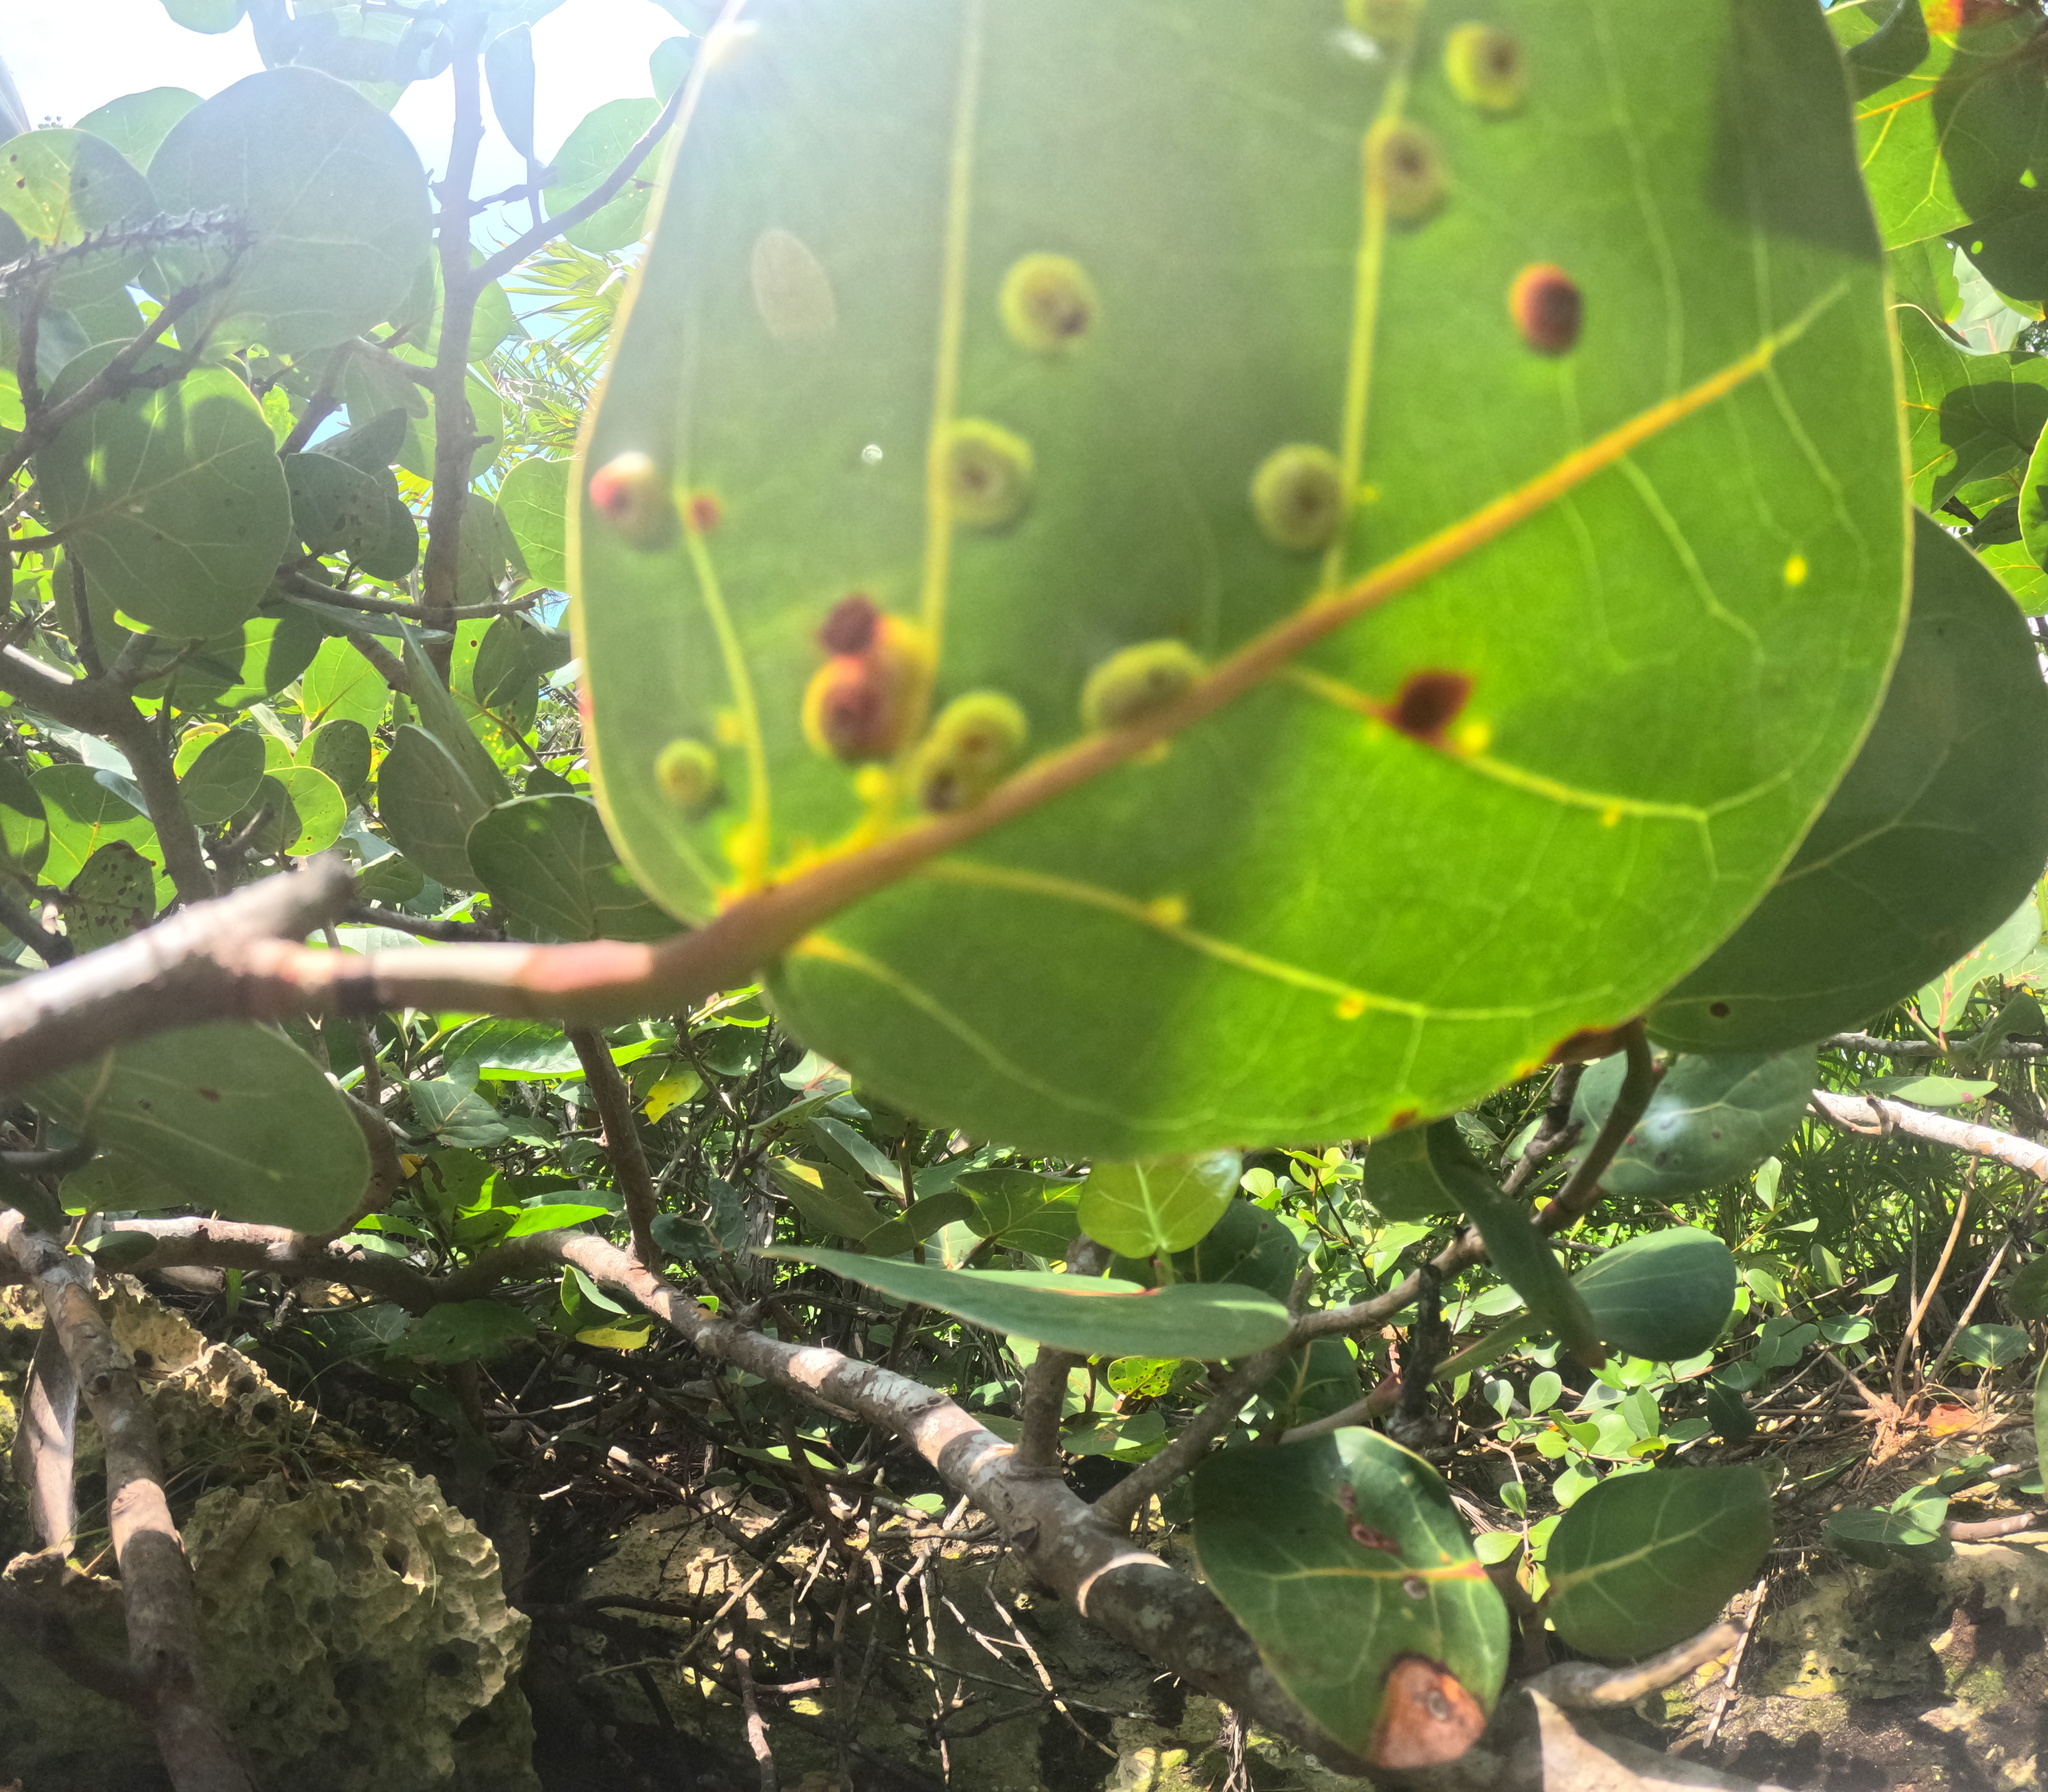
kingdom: Animalia
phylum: Arthropoda
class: Insecta
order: Diptera
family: Cecidomyiidae
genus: Ctenodactylomyia
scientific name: Ctenodactylomyia watsoni
